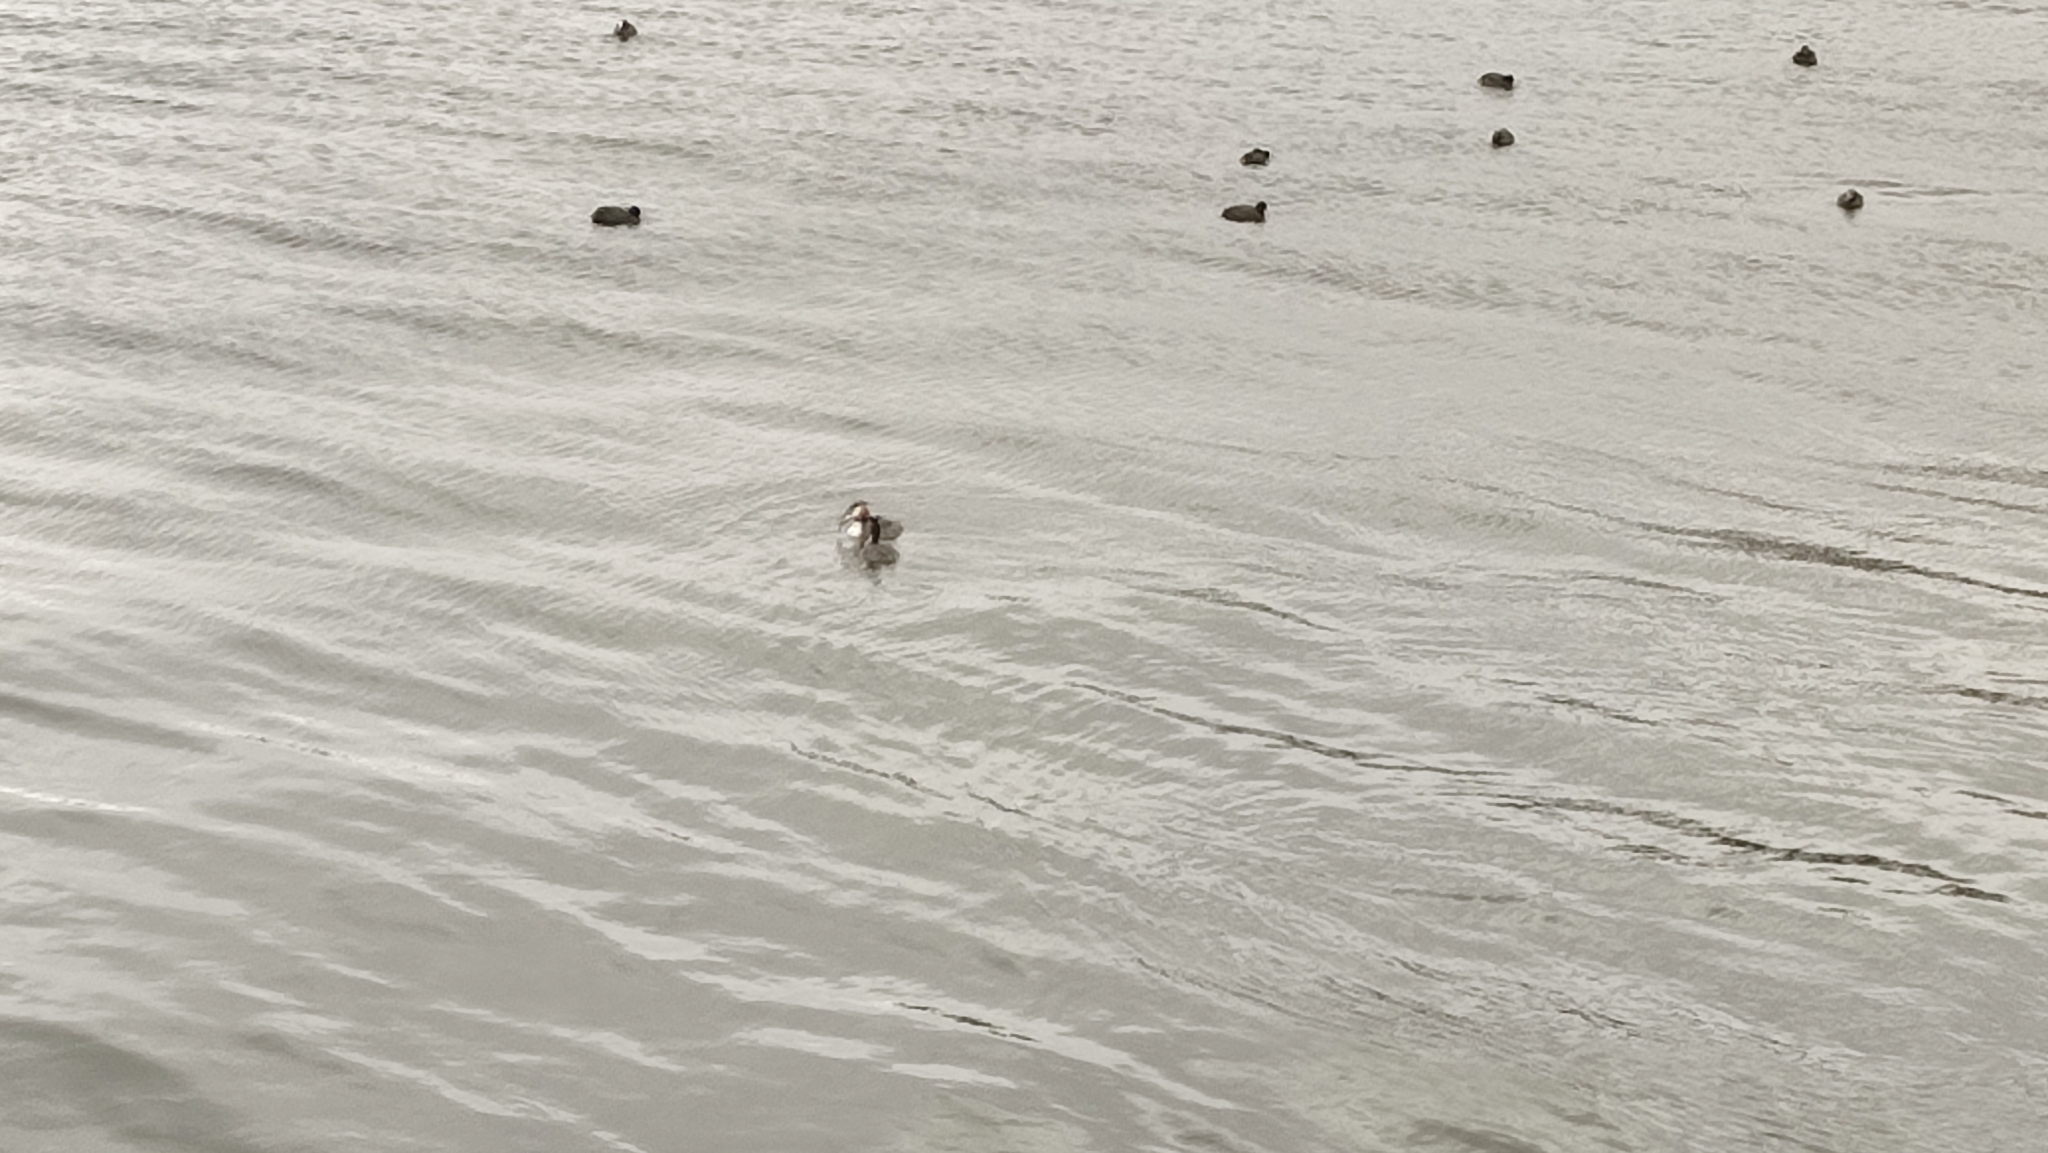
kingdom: Animalia
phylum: Chordata
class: Aves
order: Podicipediformes
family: Podicipedidae
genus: Podiceps
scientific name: Podiceps cristatus
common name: Great crested grebe
